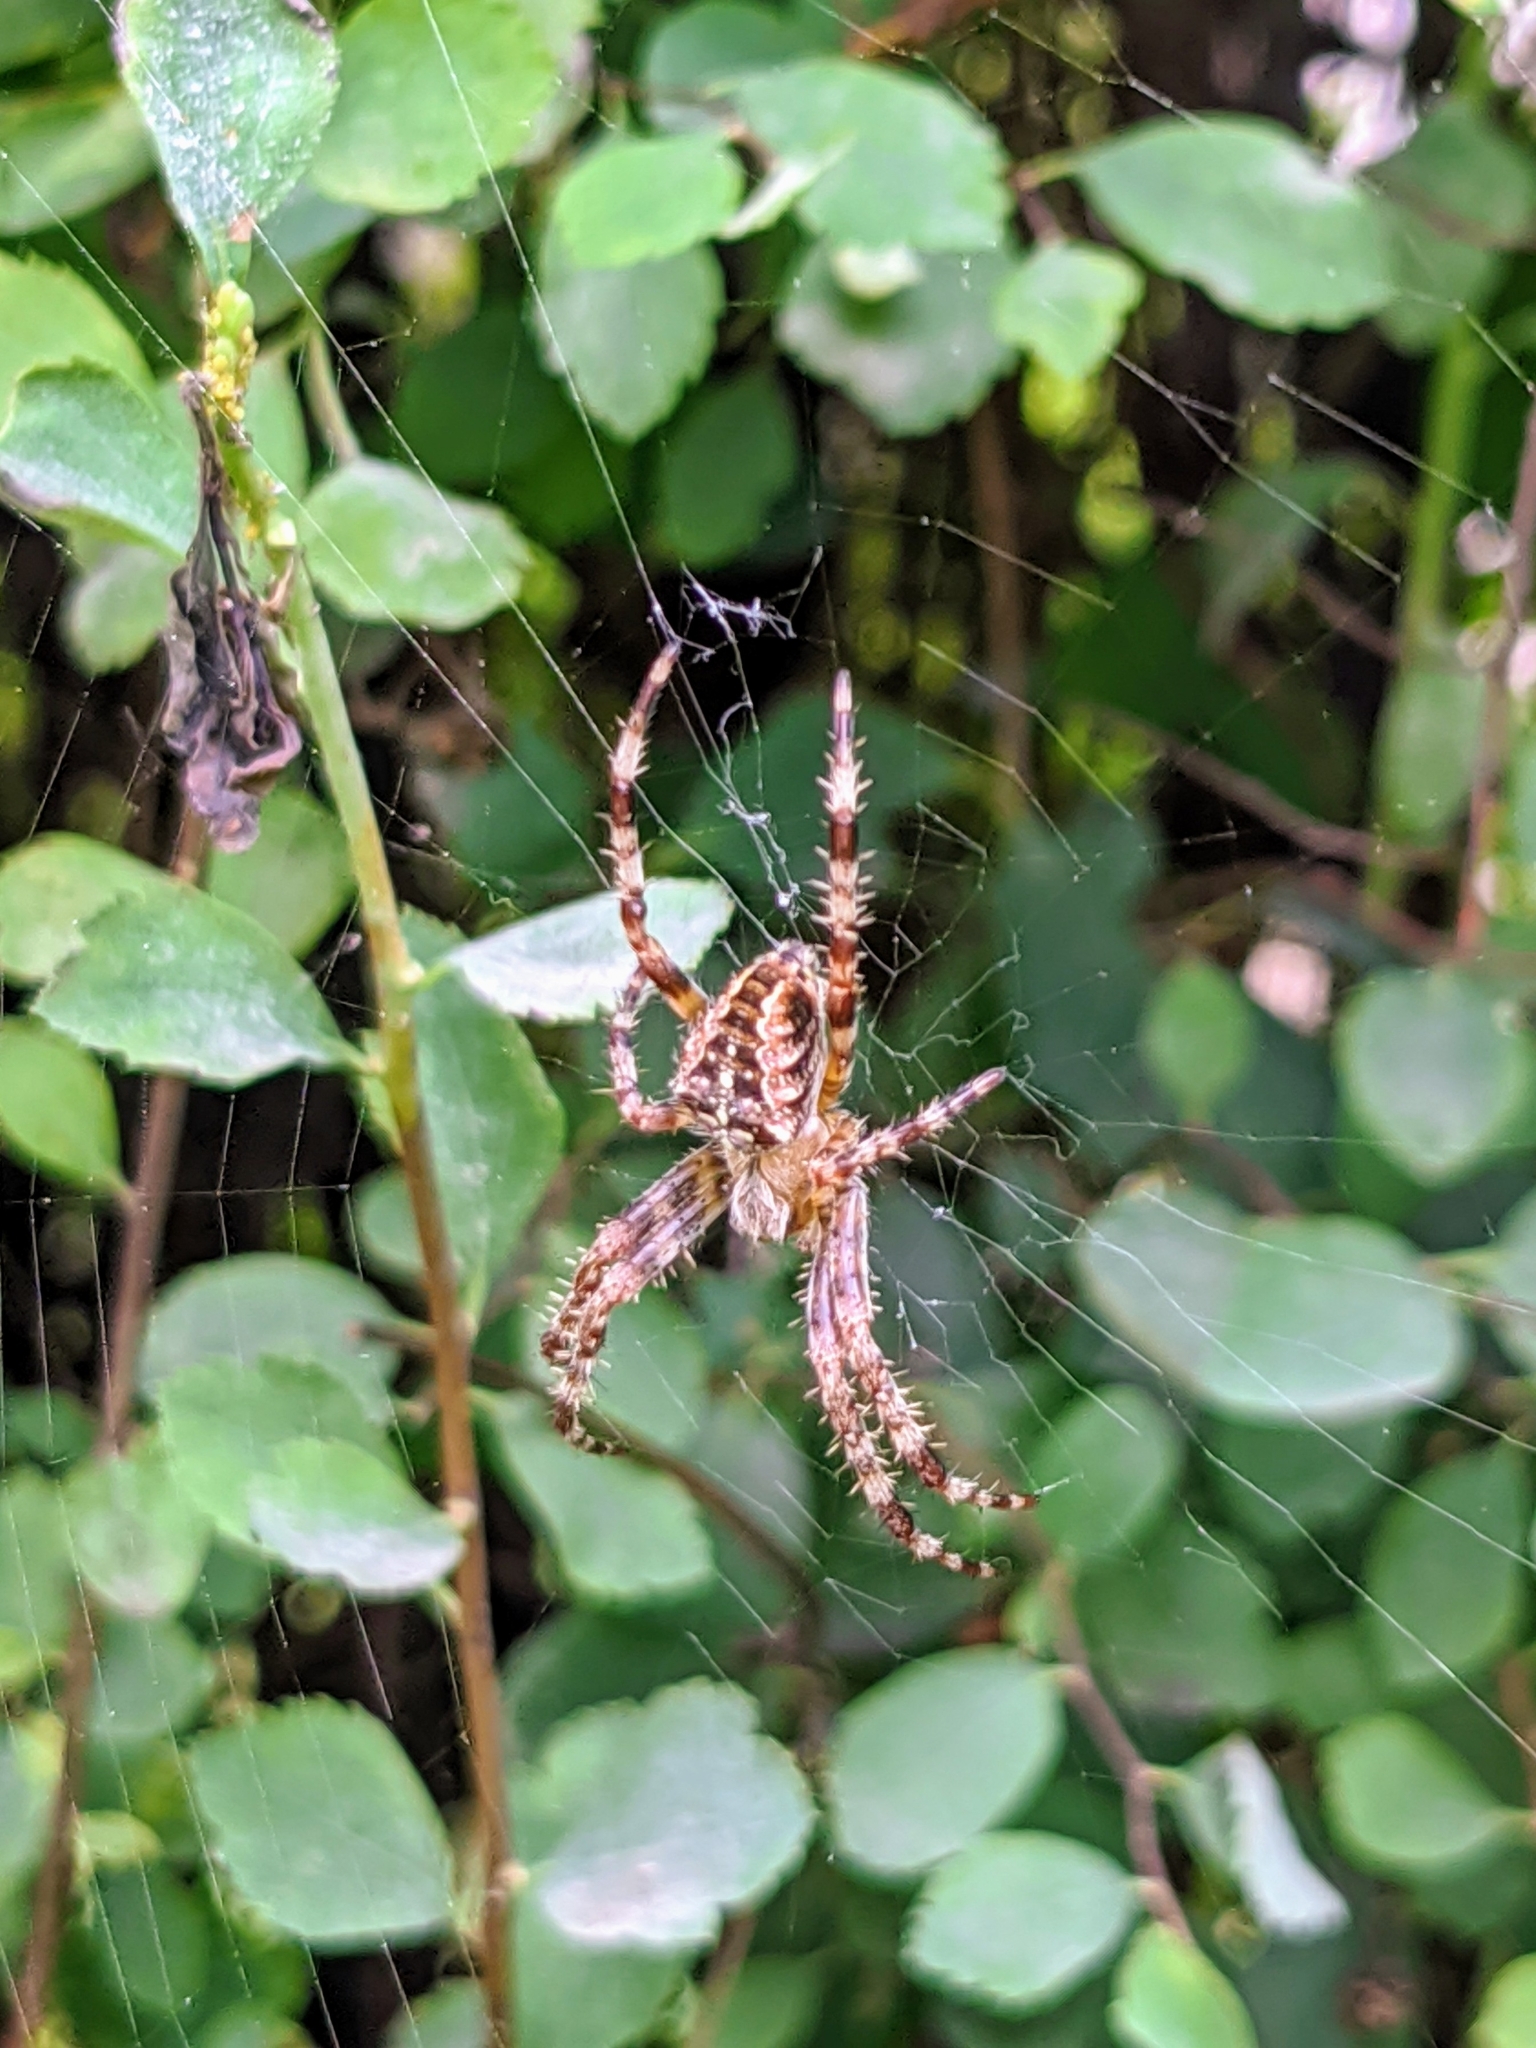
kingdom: Animalia
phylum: Arthropoda
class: Arachnida
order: Araneae
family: Araneidae
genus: Araneus
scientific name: Araneus diadematus
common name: Cross orbweaver
